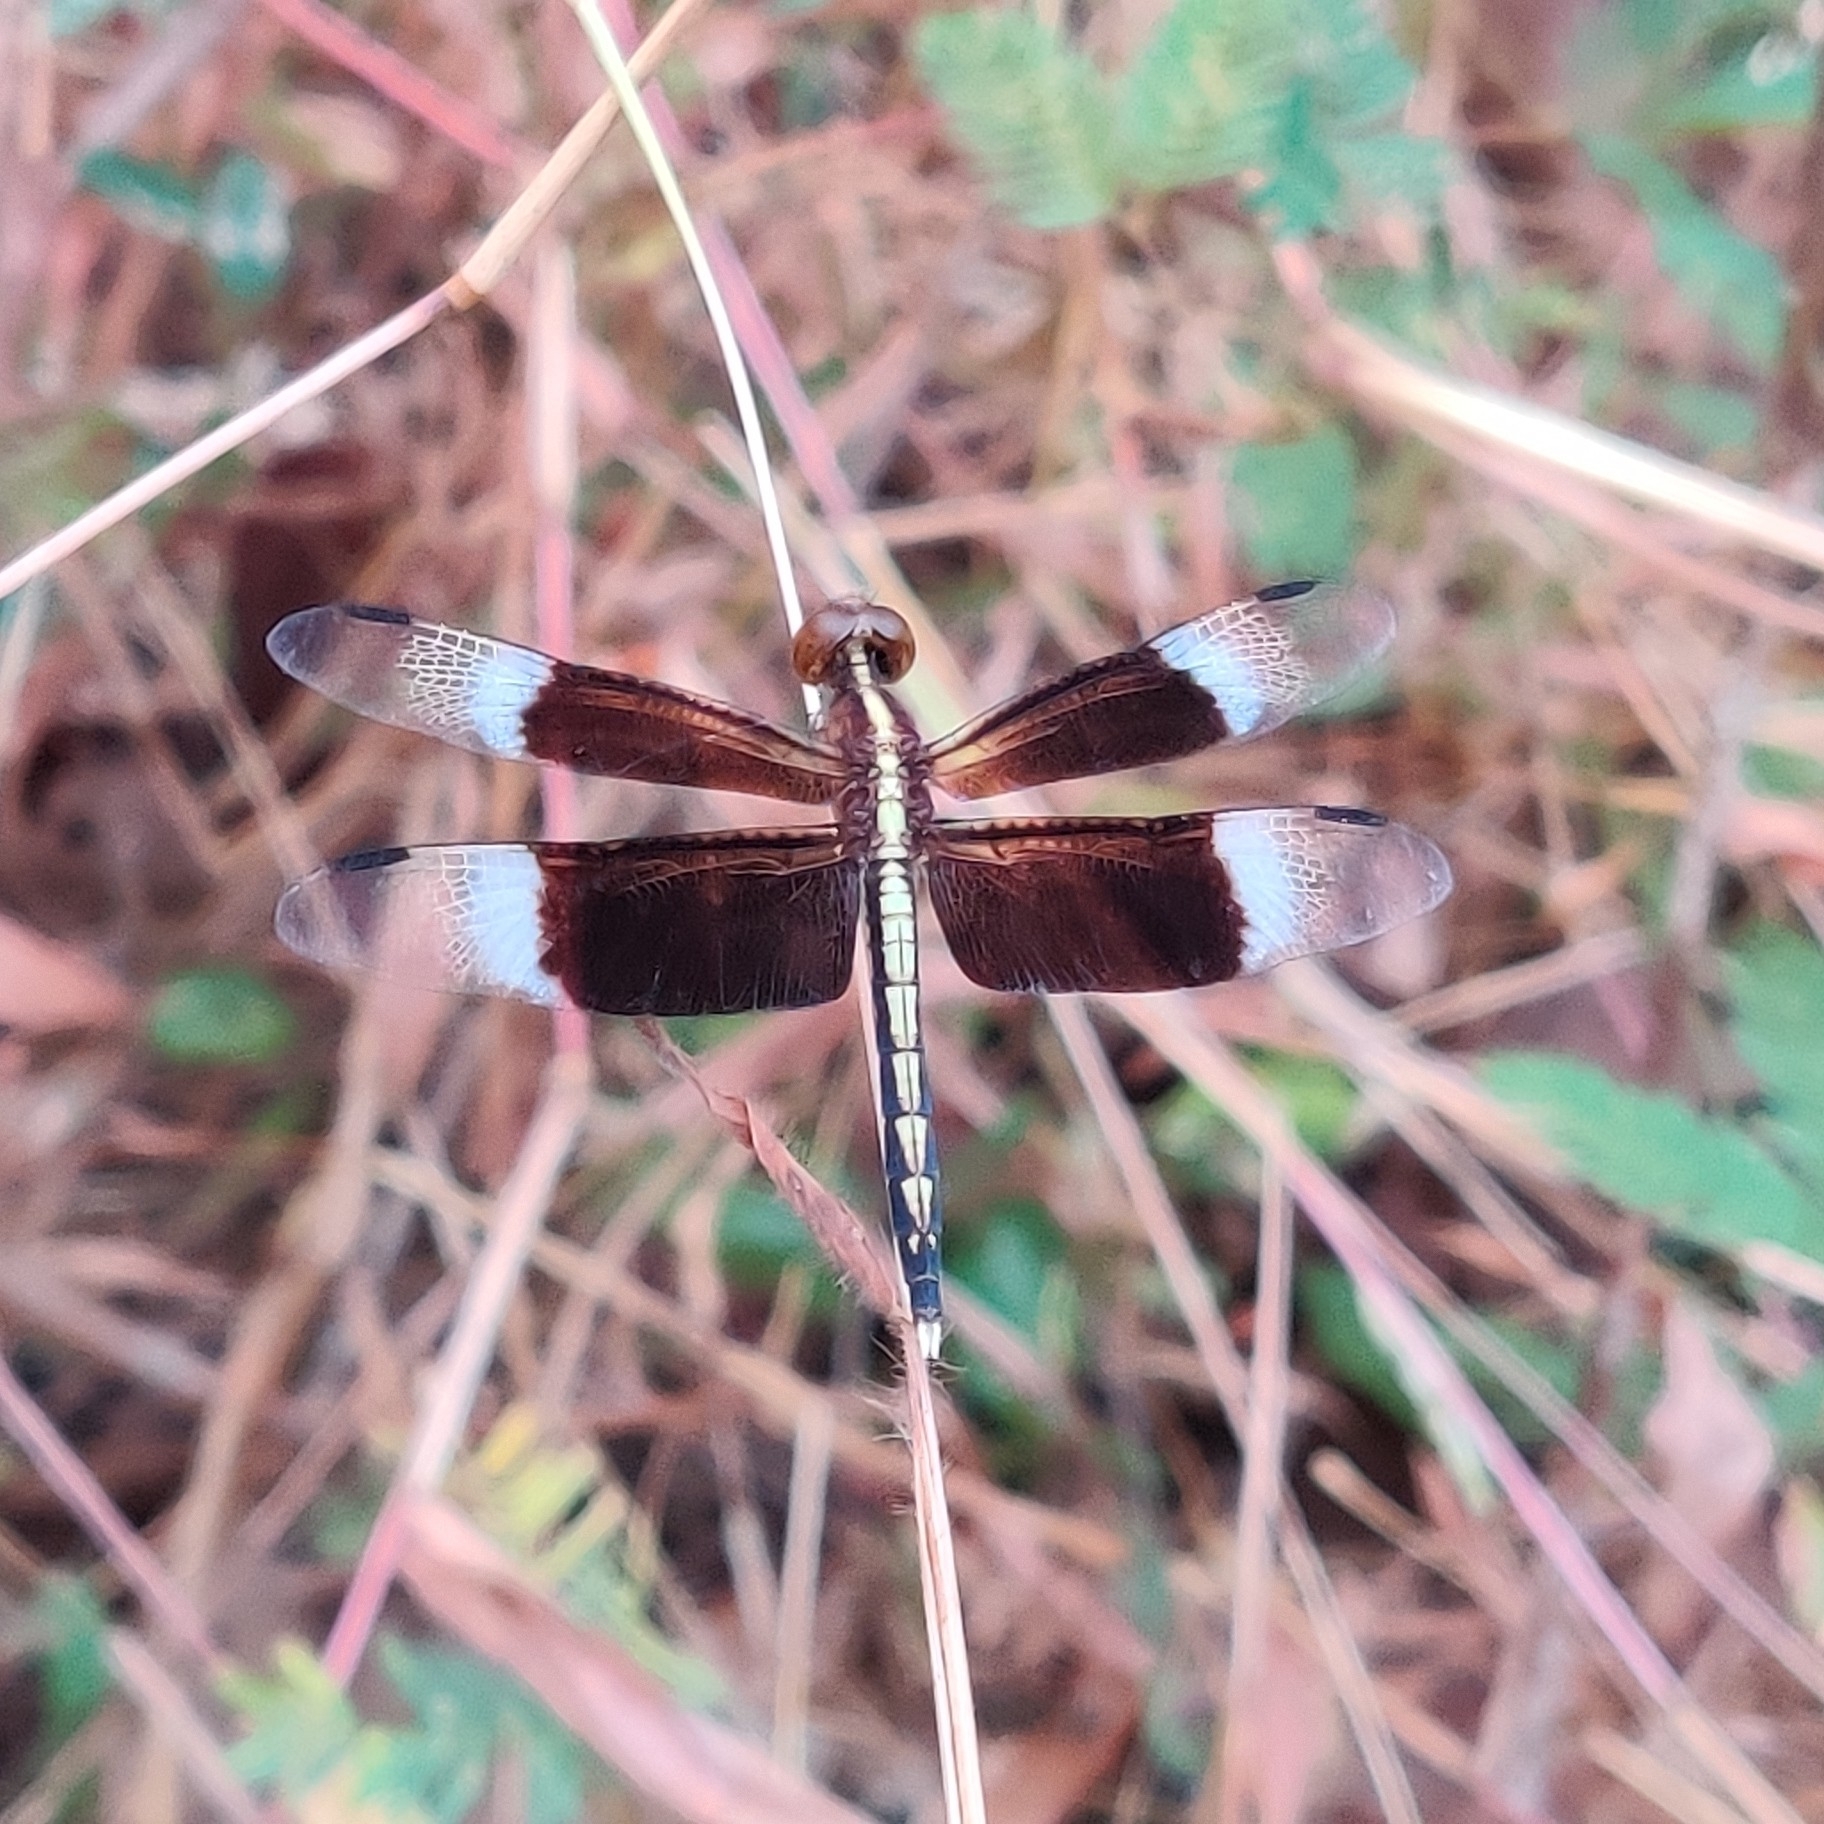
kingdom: Animalia
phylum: Arthropoda
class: Insecta
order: Odonata
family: Libellulidae
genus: Neurothemis
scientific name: Neurothemis tullia
